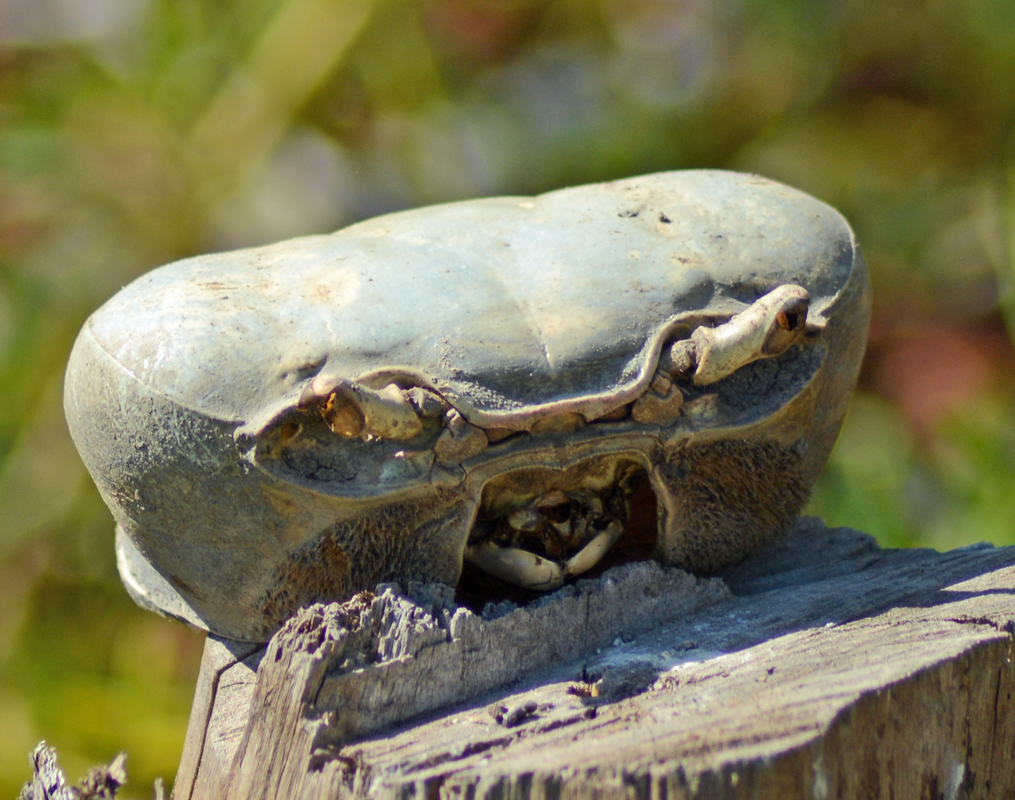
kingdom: Animalia
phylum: Arthropoda
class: Malacostraca
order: Decapoda
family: Gecarcinidae
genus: Cardisoma
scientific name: Cardisoma crassum
